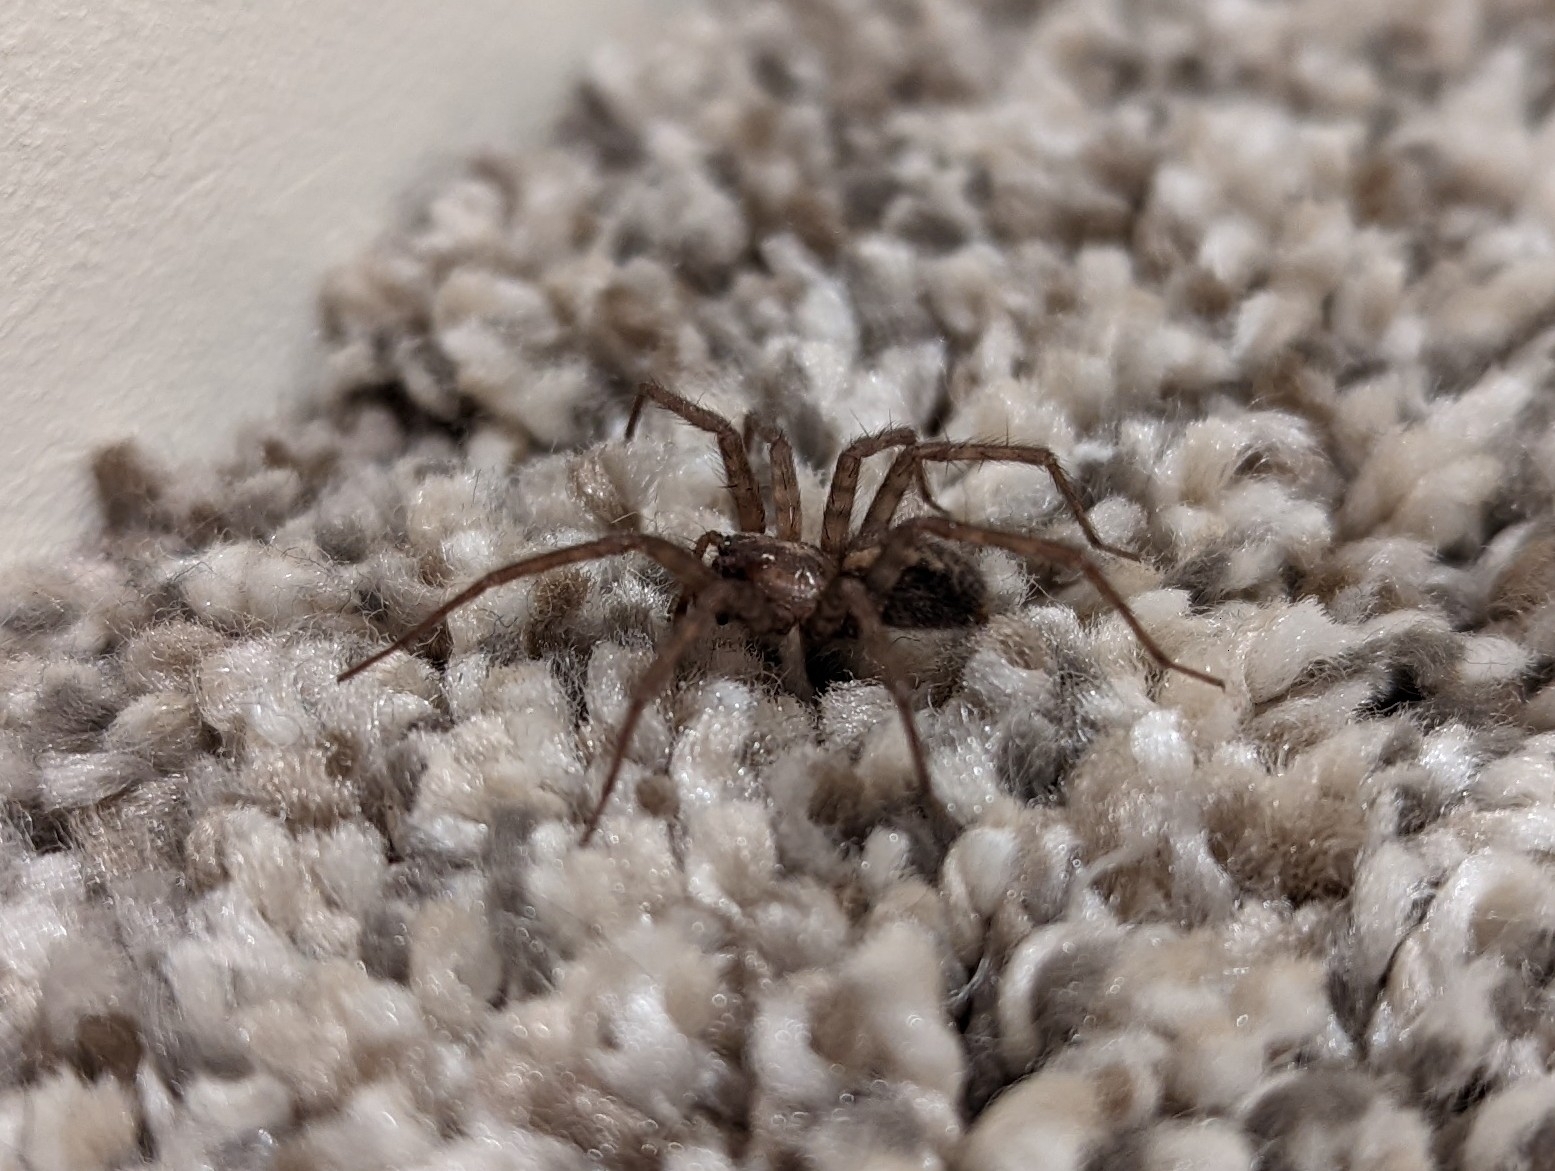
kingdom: Animalia
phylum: Arthropoda
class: Arachnida
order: Araneae
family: Agelenidae
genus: Tegenaria
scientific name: Tegenaria domestica
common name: Barn funnel weaver
